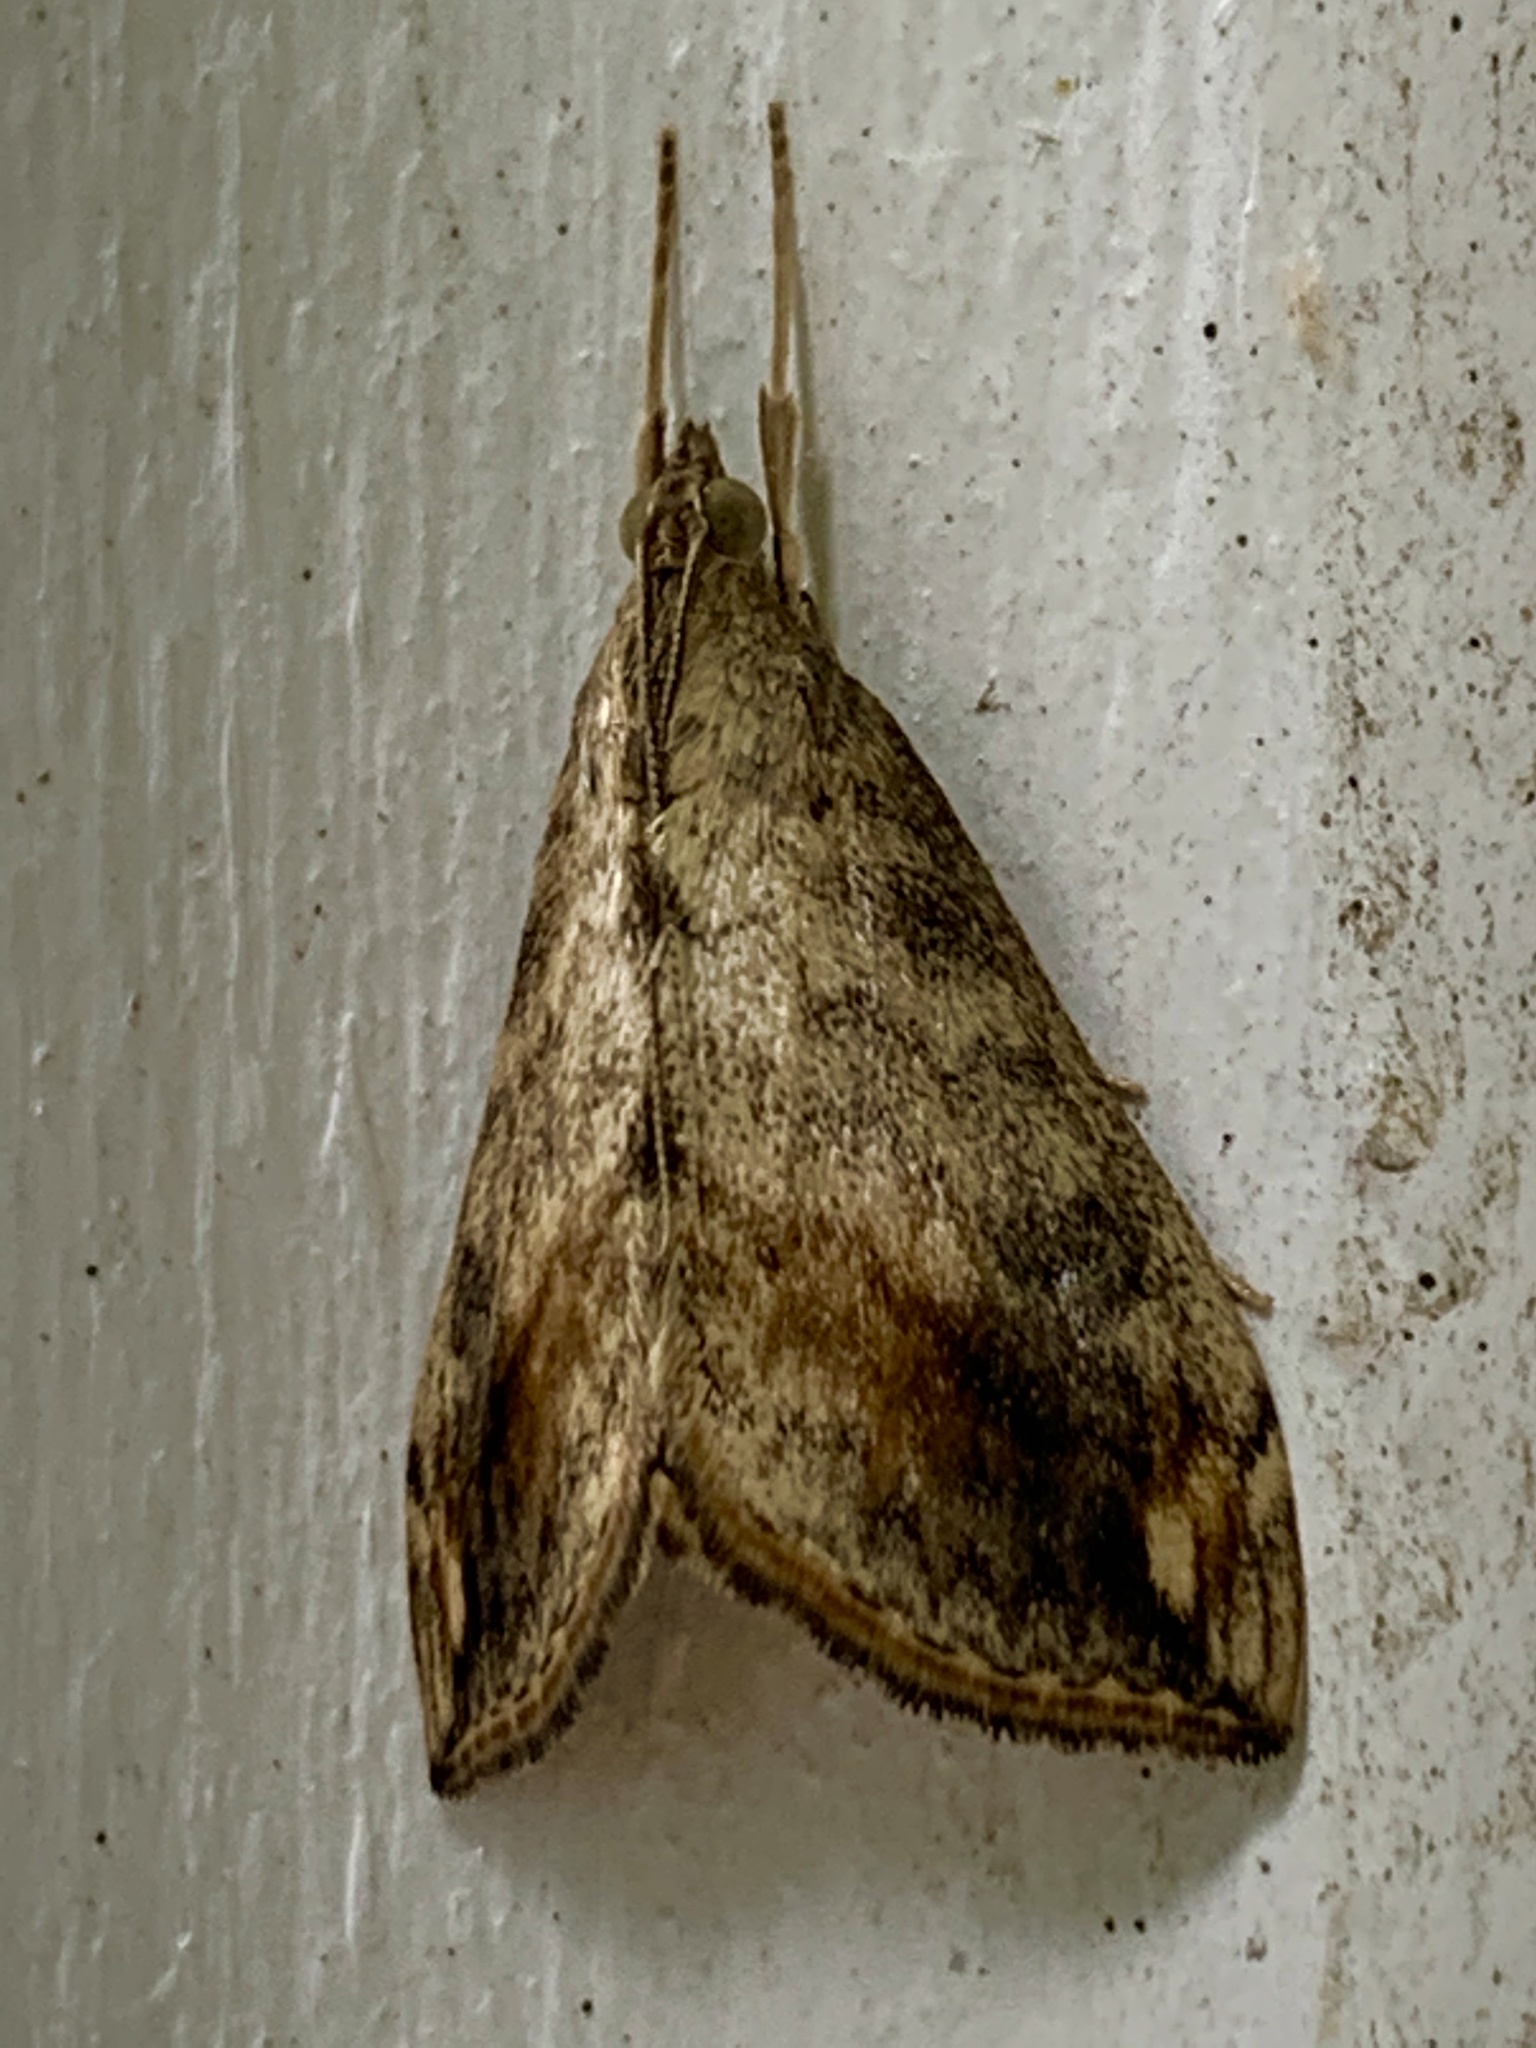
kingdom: Animalia
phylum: Arthropoda
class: Insecta
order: Lepidoptera
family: Crambidae
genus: Evergestis
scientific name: Evergestis rimosalis
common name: Cross-striped cabbageworm moth
